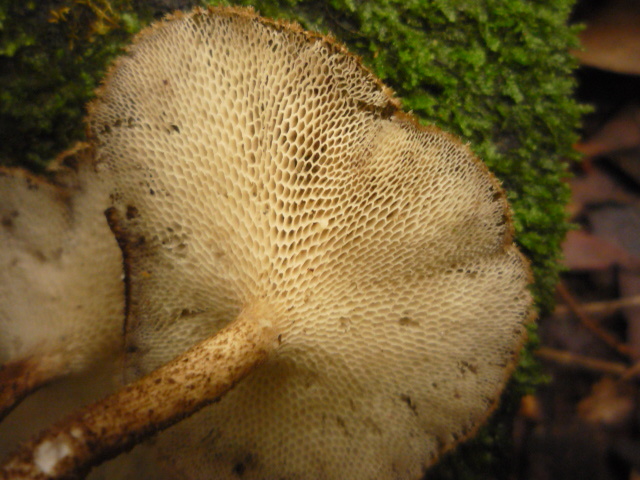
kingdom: Fungi
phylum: Basidiomycota
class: Agaricomycetes
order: Polyporales
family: Polyporaceae
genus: Lentinus
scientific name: Lentinus arcularius
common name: Spring polypore
